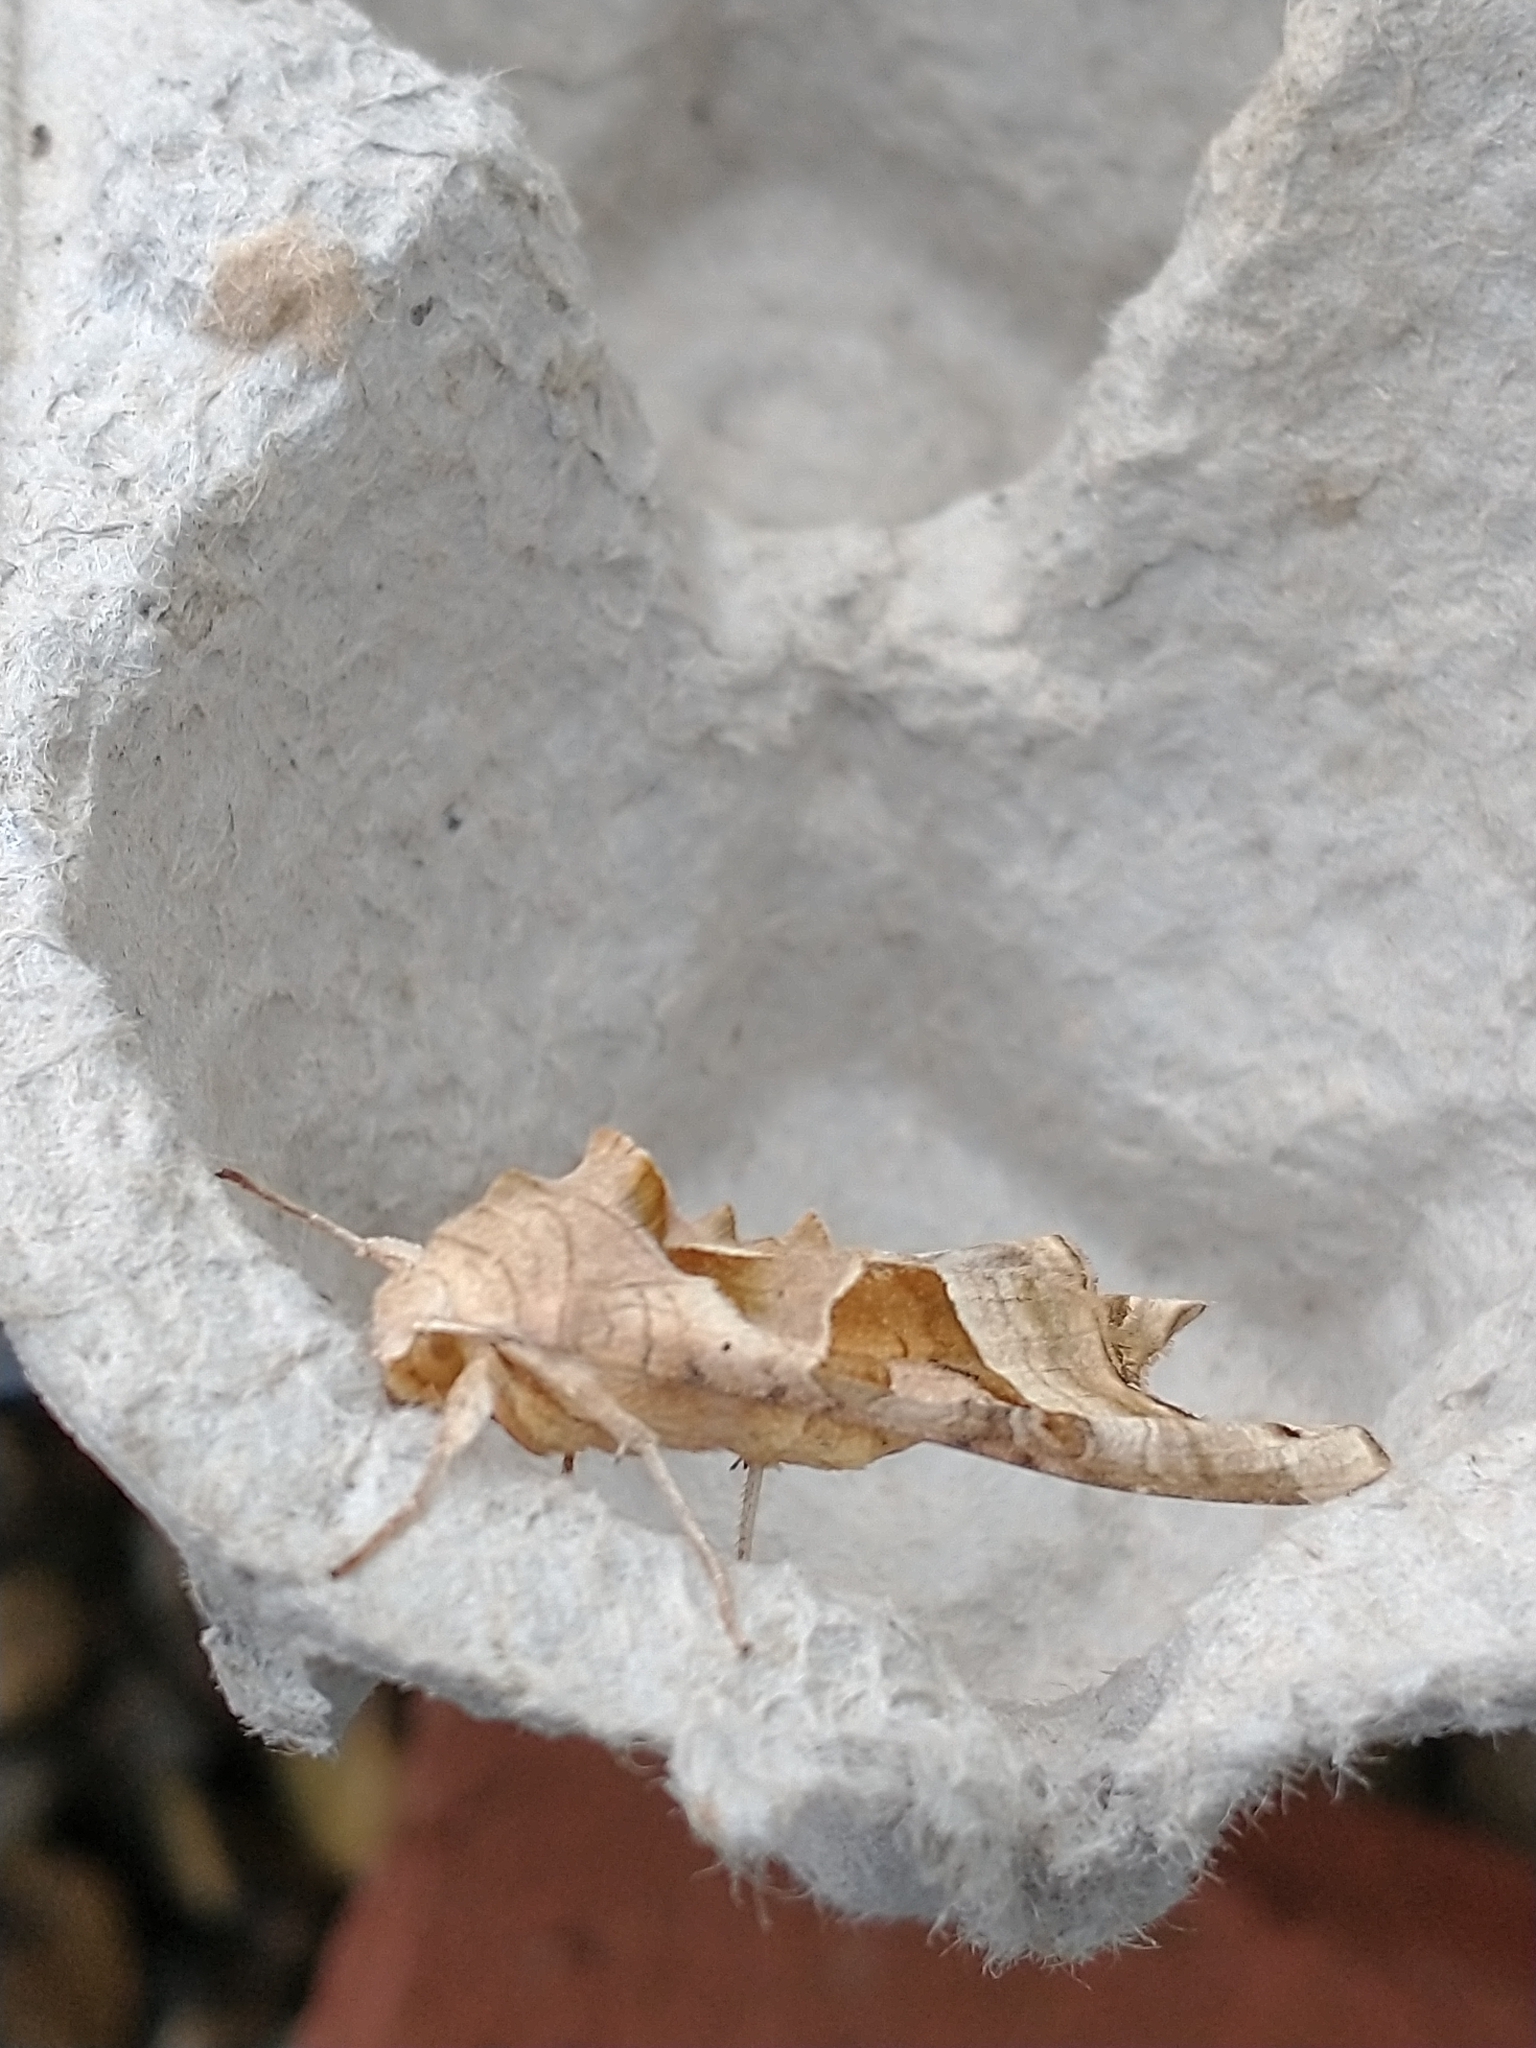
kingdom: Animalia
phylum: Arthropoda
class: Insecta
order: Lepidoptera
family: Noctuidae
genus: Phlogophora
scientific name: Phlogophora meticulosa
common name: Angle shades
